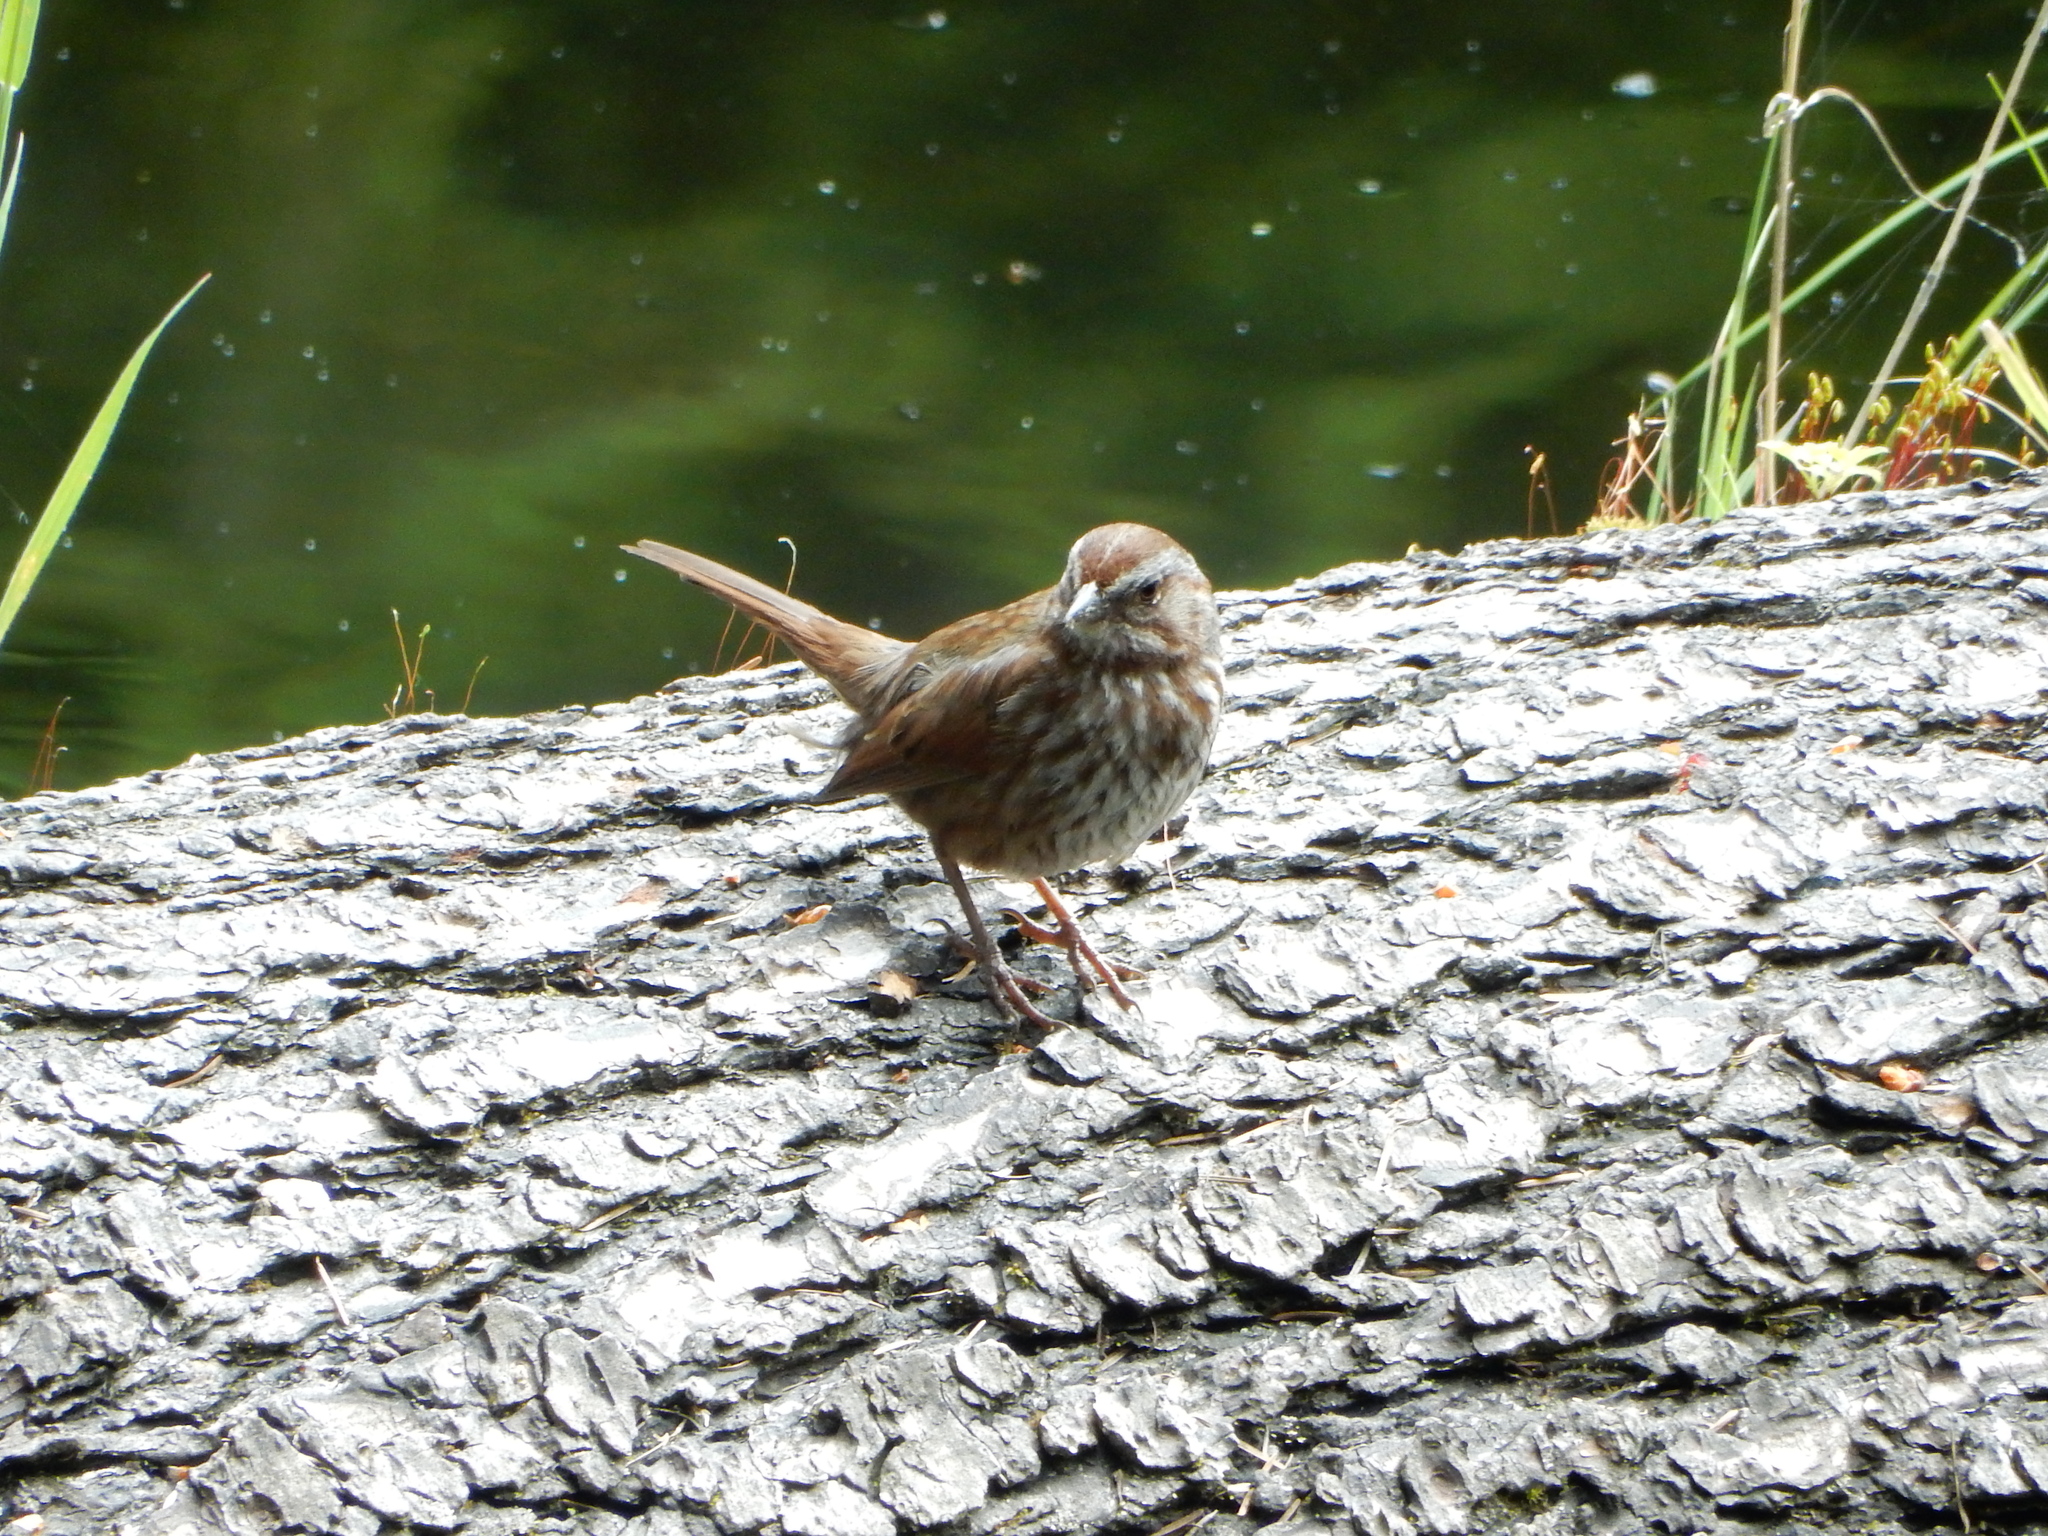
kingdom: Animalia
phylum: Chordata
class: Aves
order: Passeriformes
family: Passerellidae
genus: Melospiza
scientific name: Melospiza melodia
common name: Song sparrow
